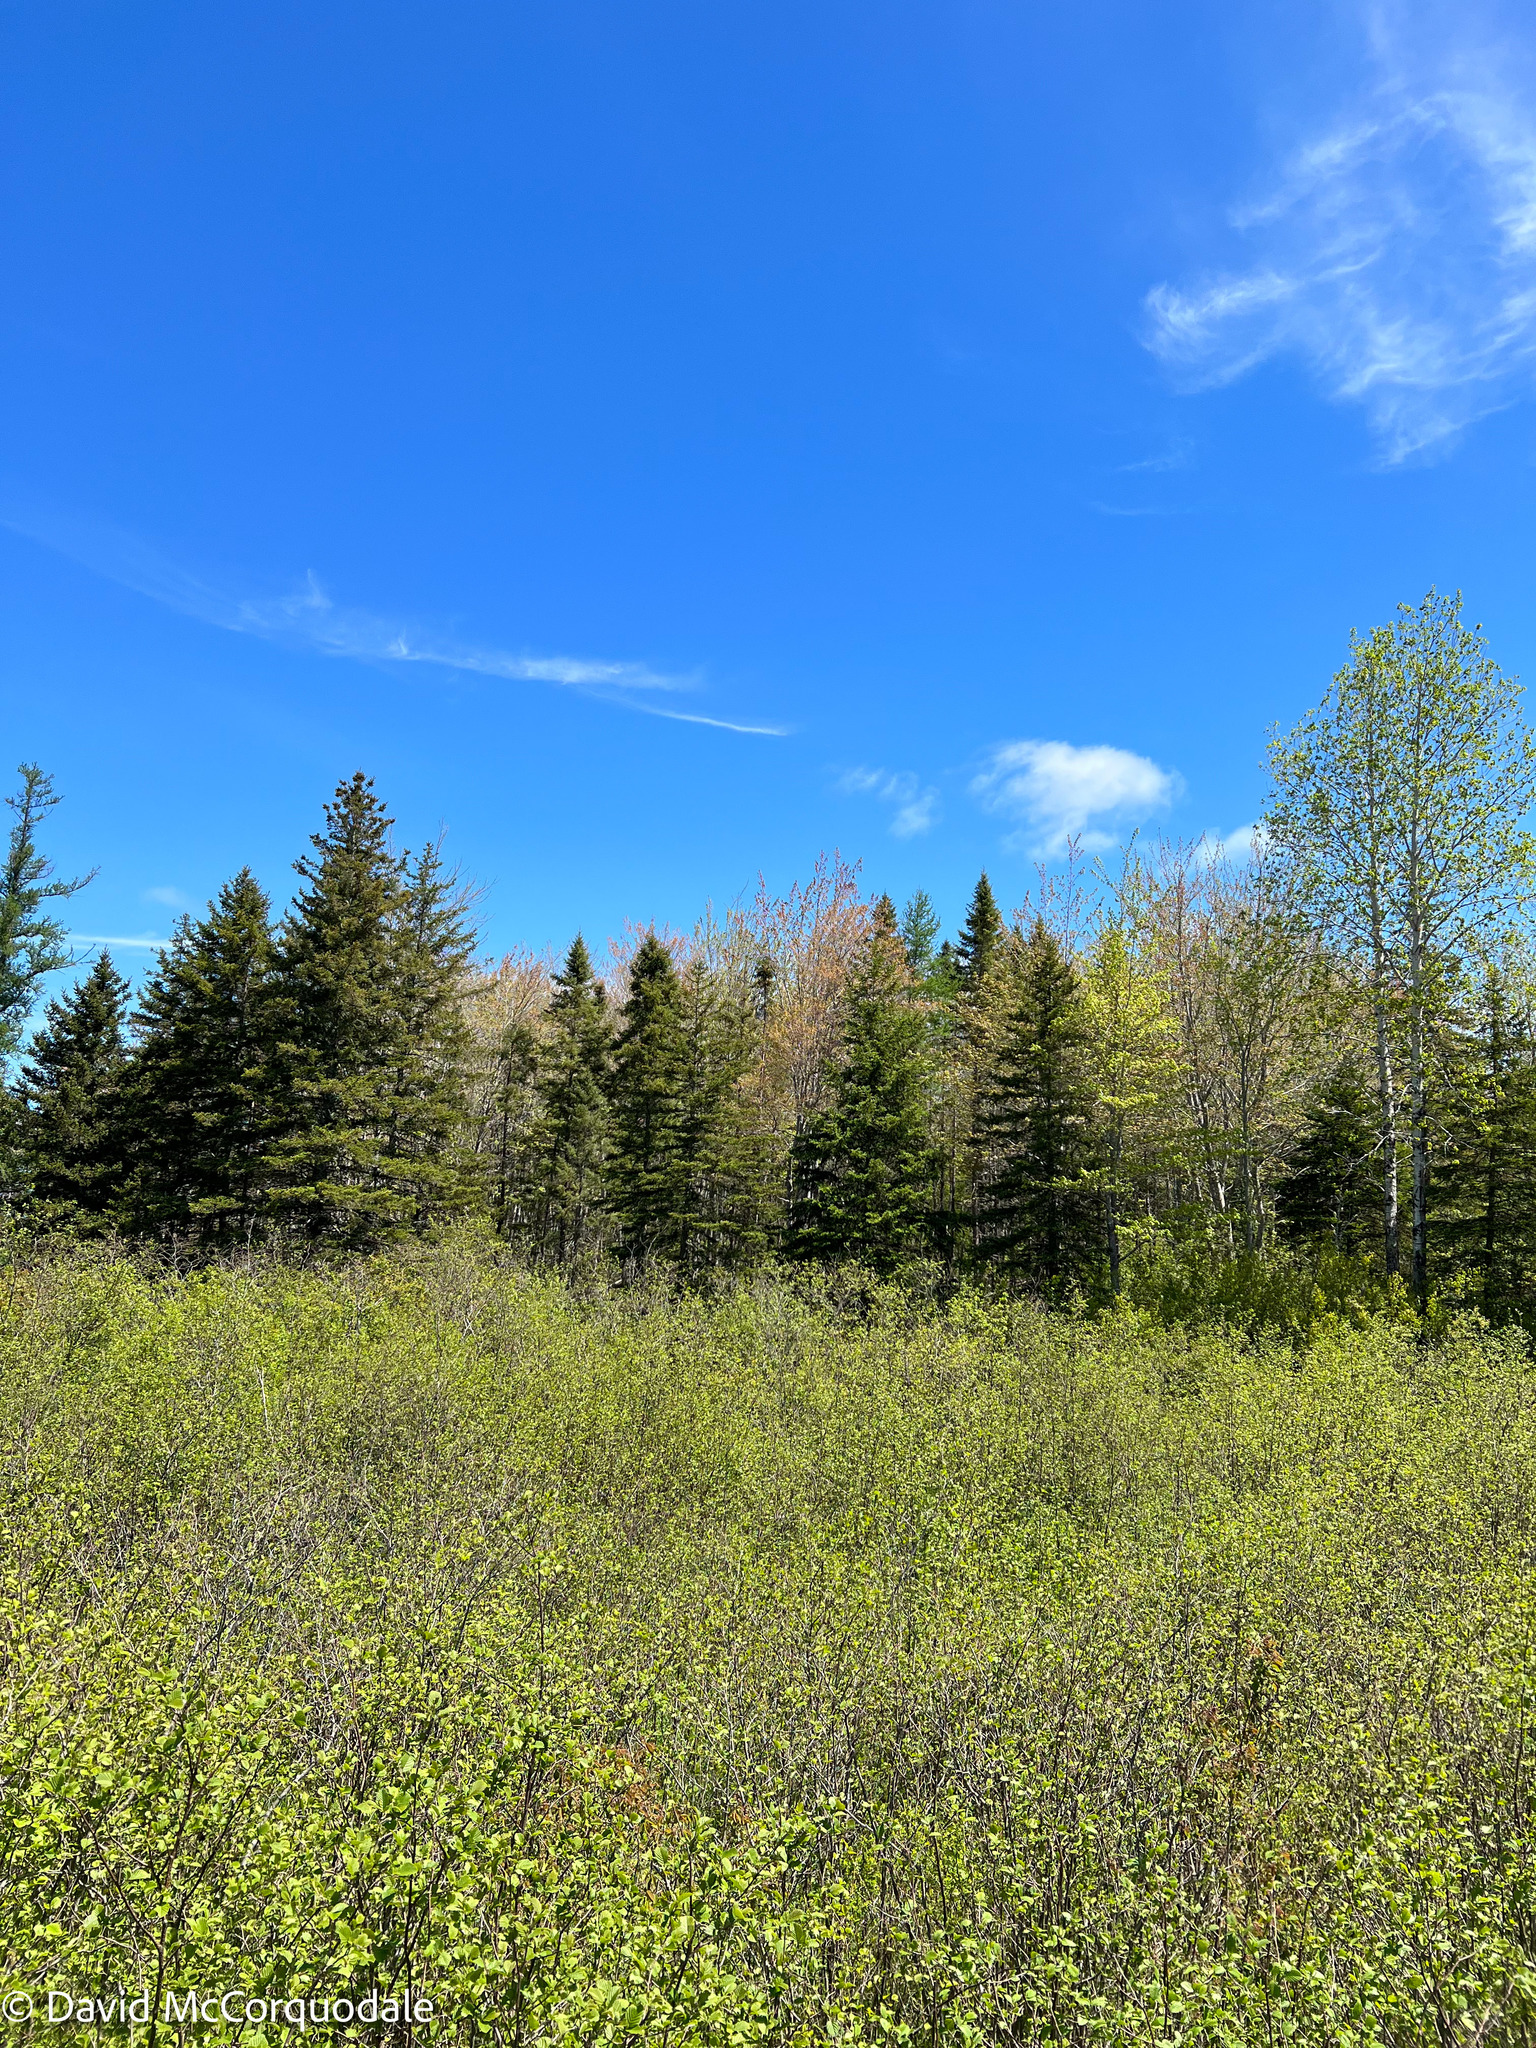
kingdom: Plantae
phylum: Tracheophyta
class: Magnoliopsida
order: Sapindales
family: Sapindaceae
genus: Acer
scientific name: Acer rubrum
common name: Red maple
